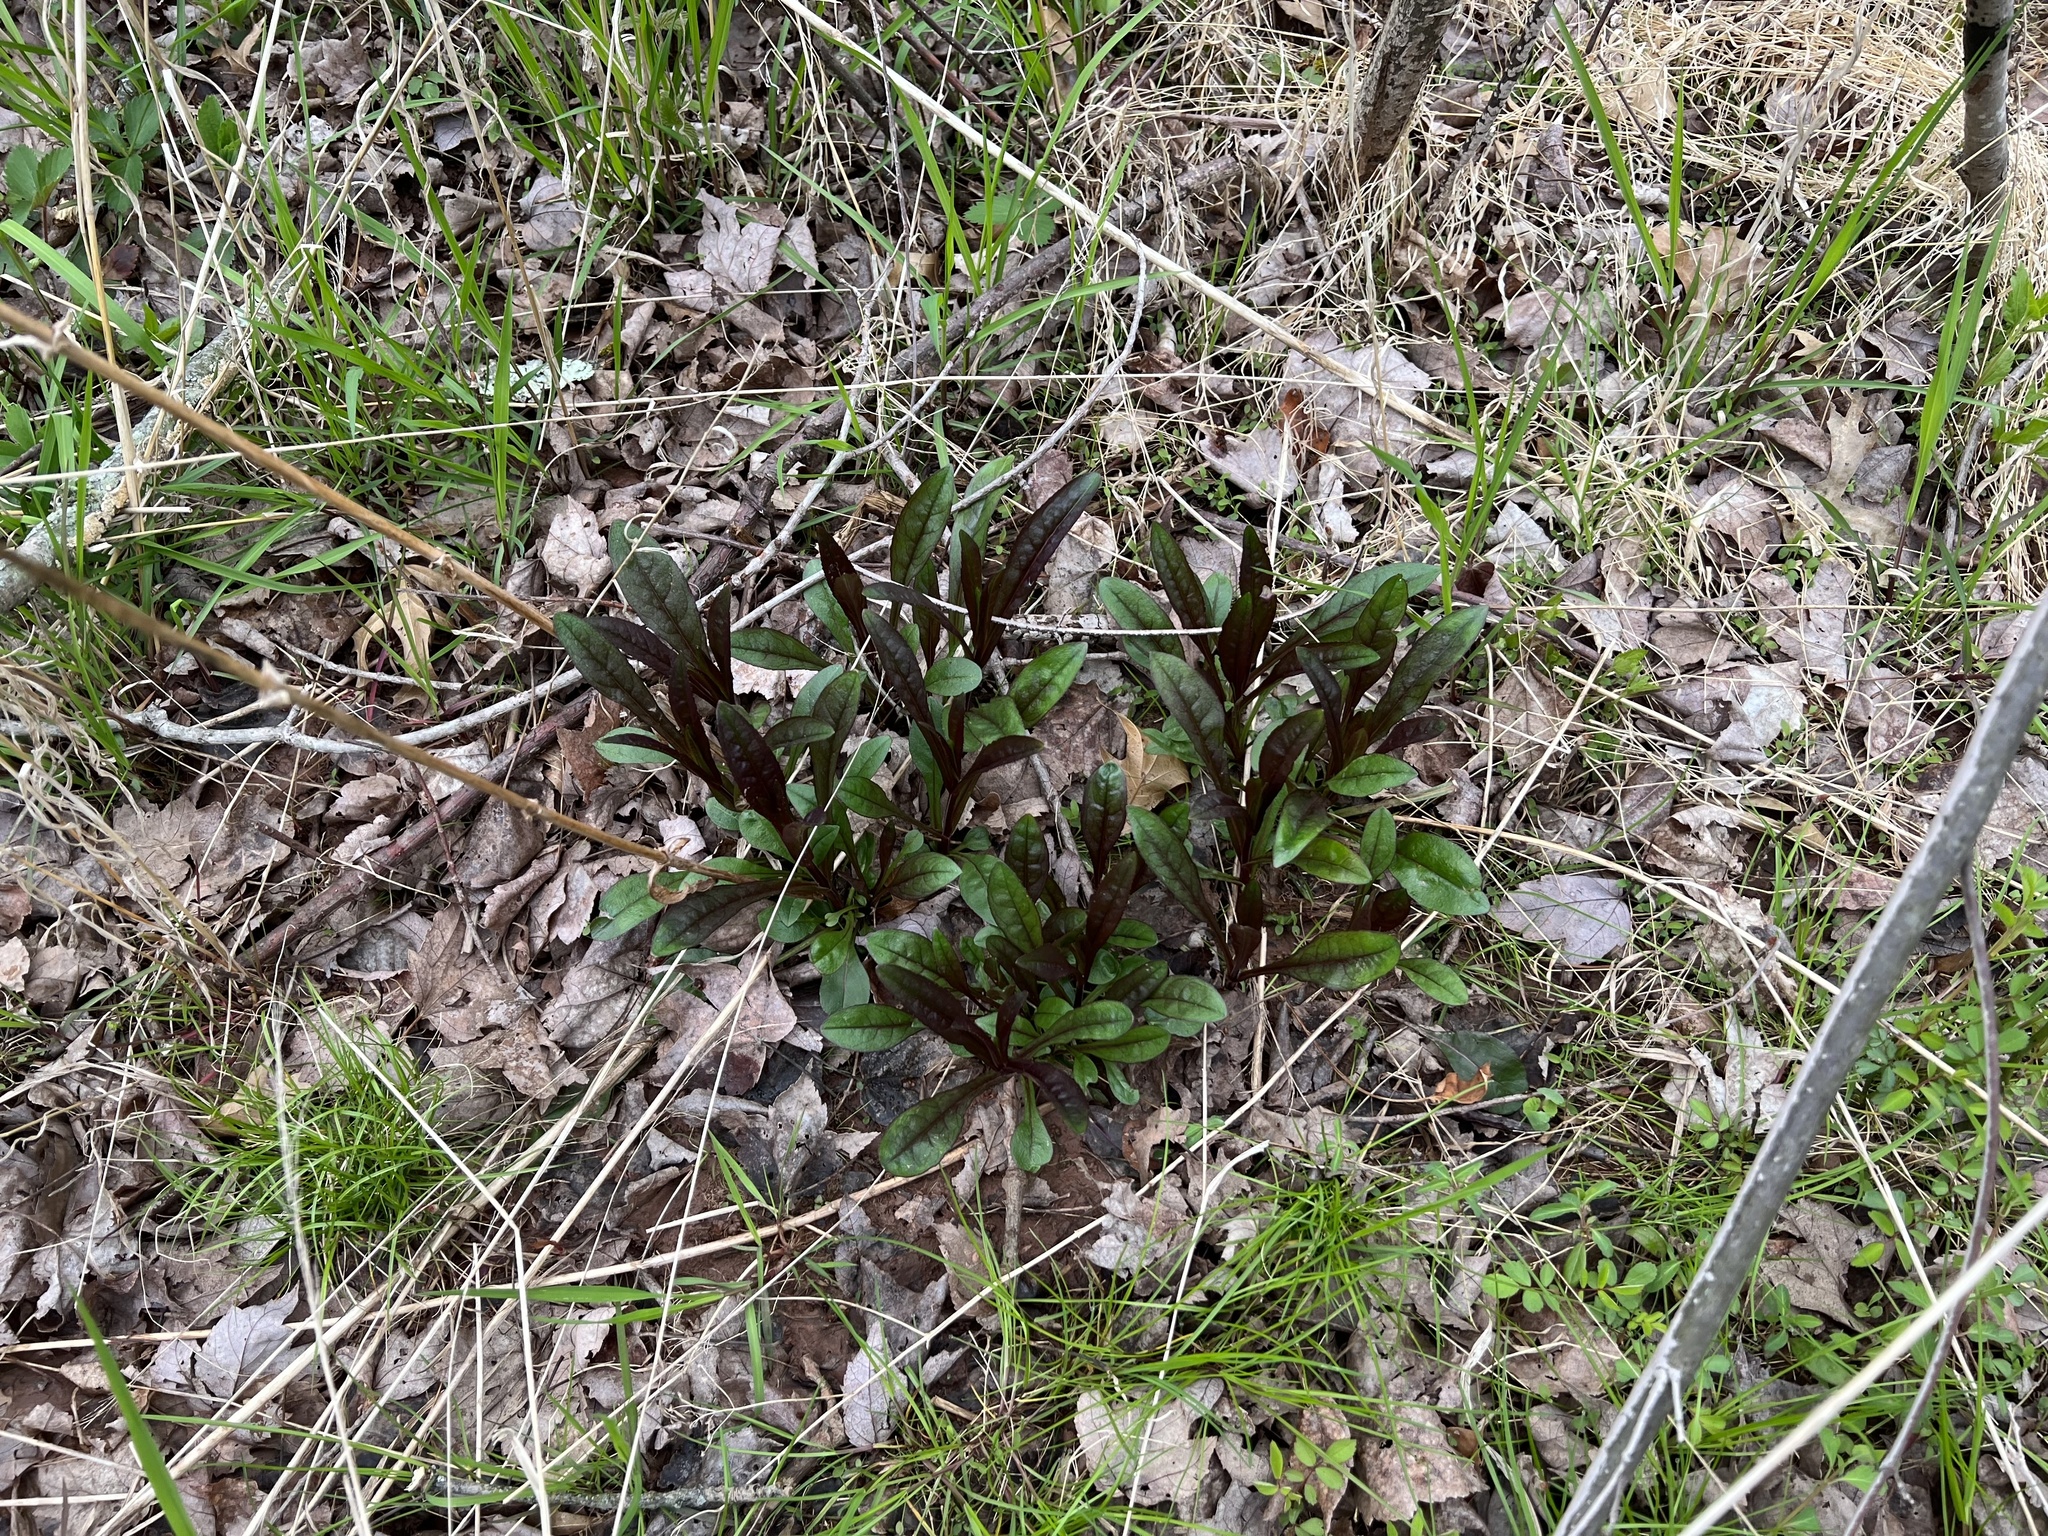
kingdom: Plantae
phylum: Tracheophyta
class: Magnoliopsida
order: Lamiales
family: Plantaginaceae
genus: Penstemon
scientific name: Penstemon digitalis
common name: Foxglove beardtongue
